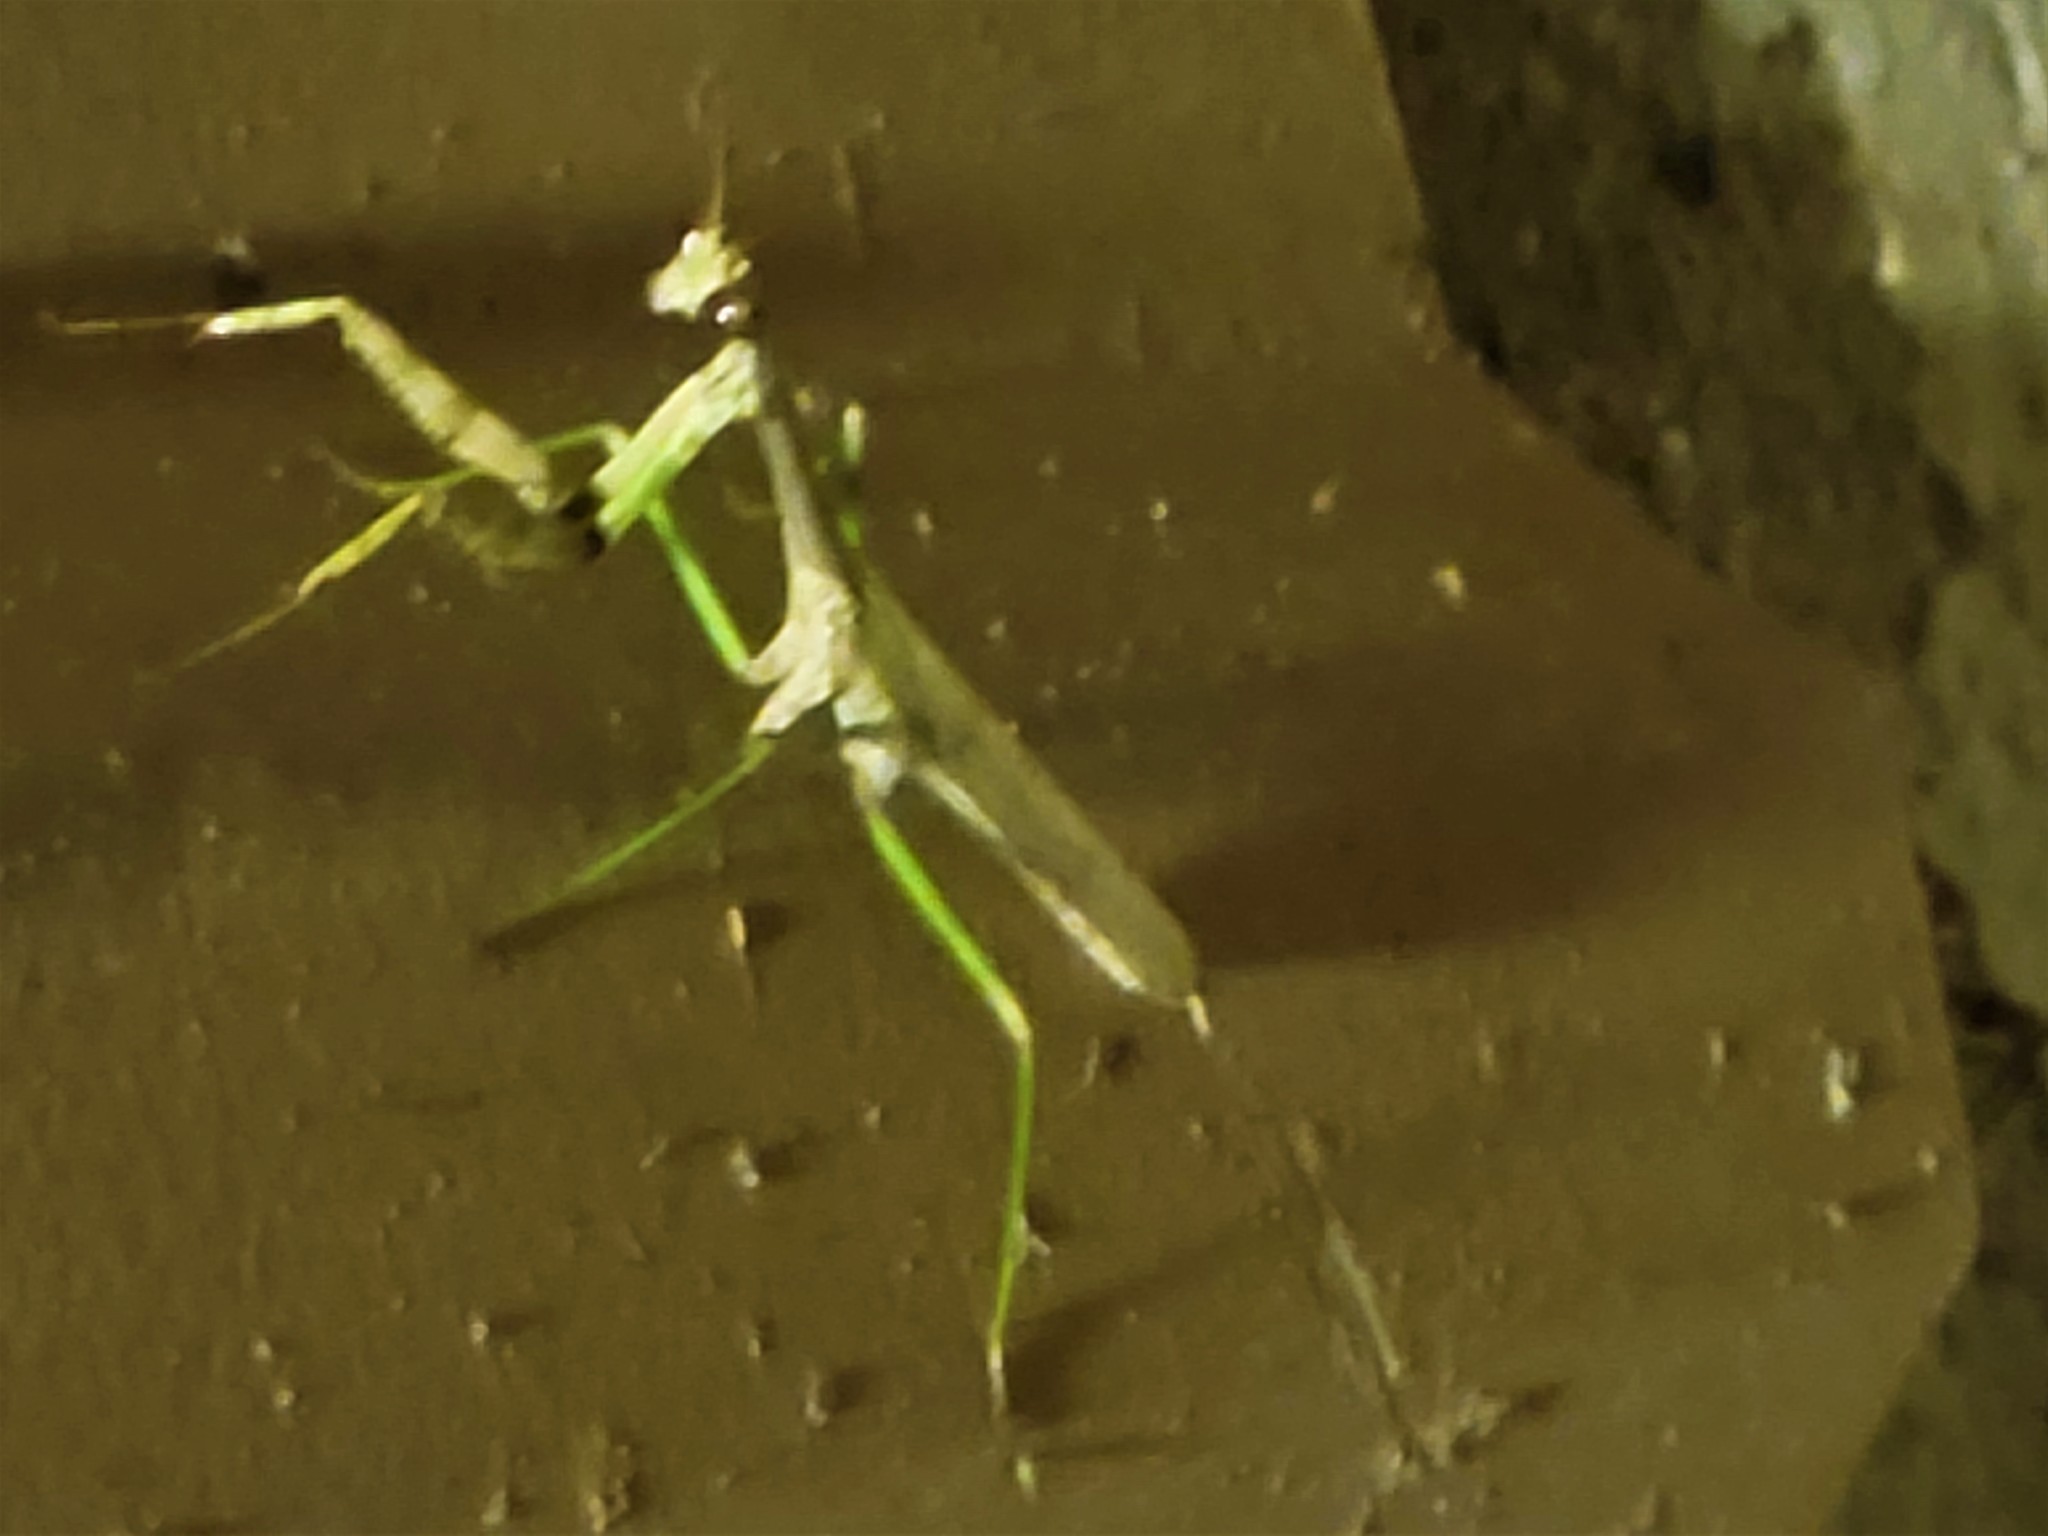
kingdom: Animalia
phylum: Arthropoda
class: Insecta
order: Mantodea
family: Mantidae
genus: Stagmomantis
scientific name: Stagmomantis resacae
